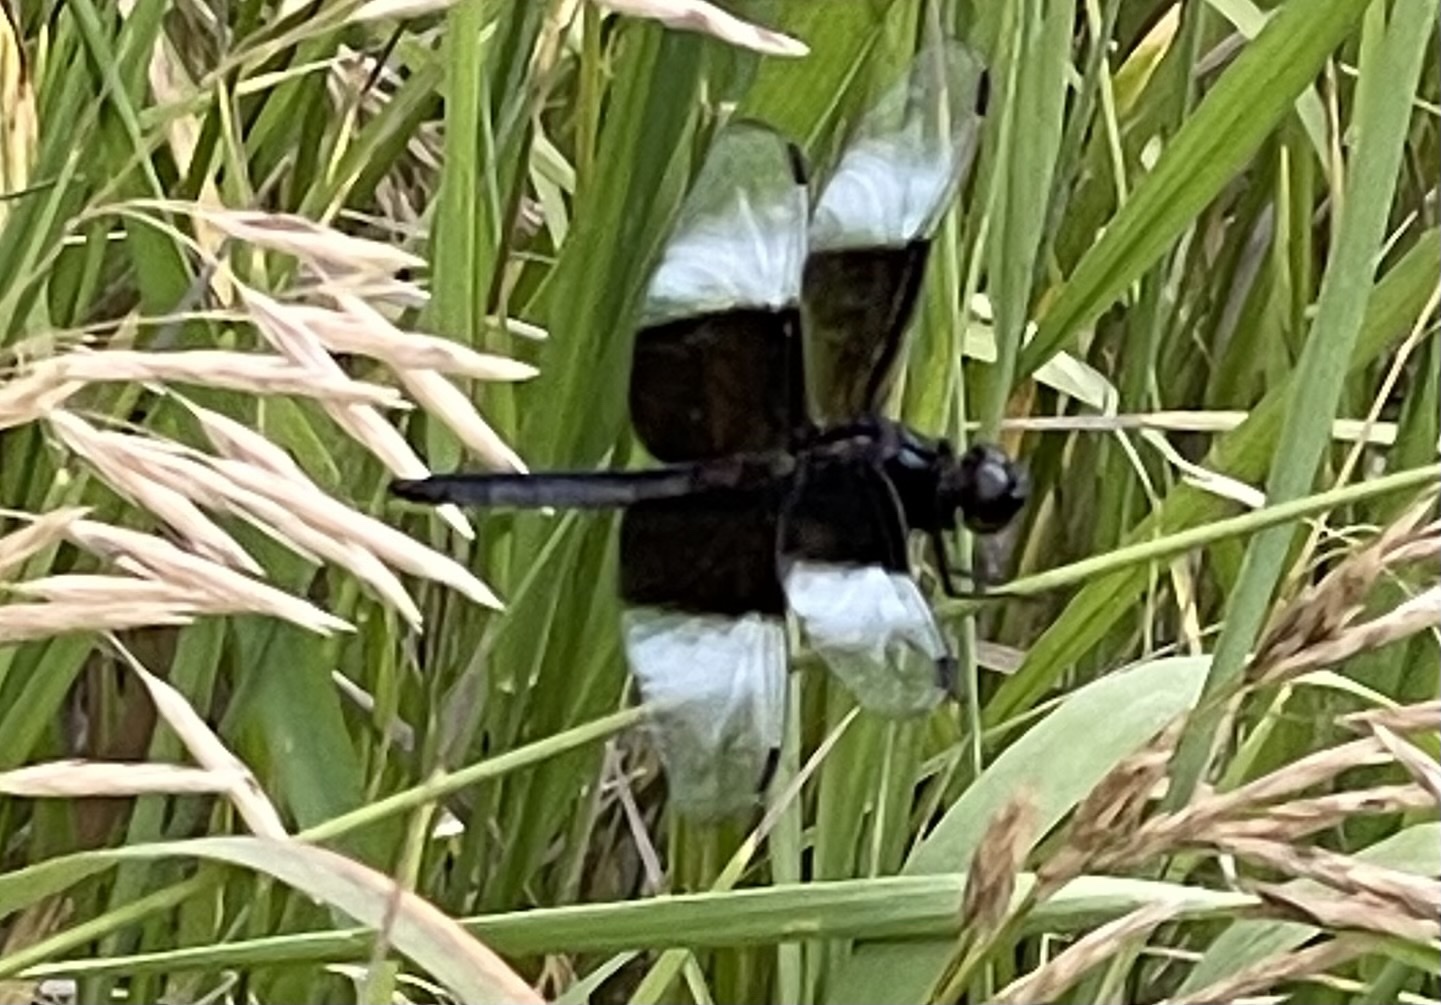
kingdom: Animalia
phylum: Arthropoda
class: Insecta
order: Odonata
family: Libellulidae
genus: Libellula
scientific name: Libellula luctuosa
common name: Widow skimmer
